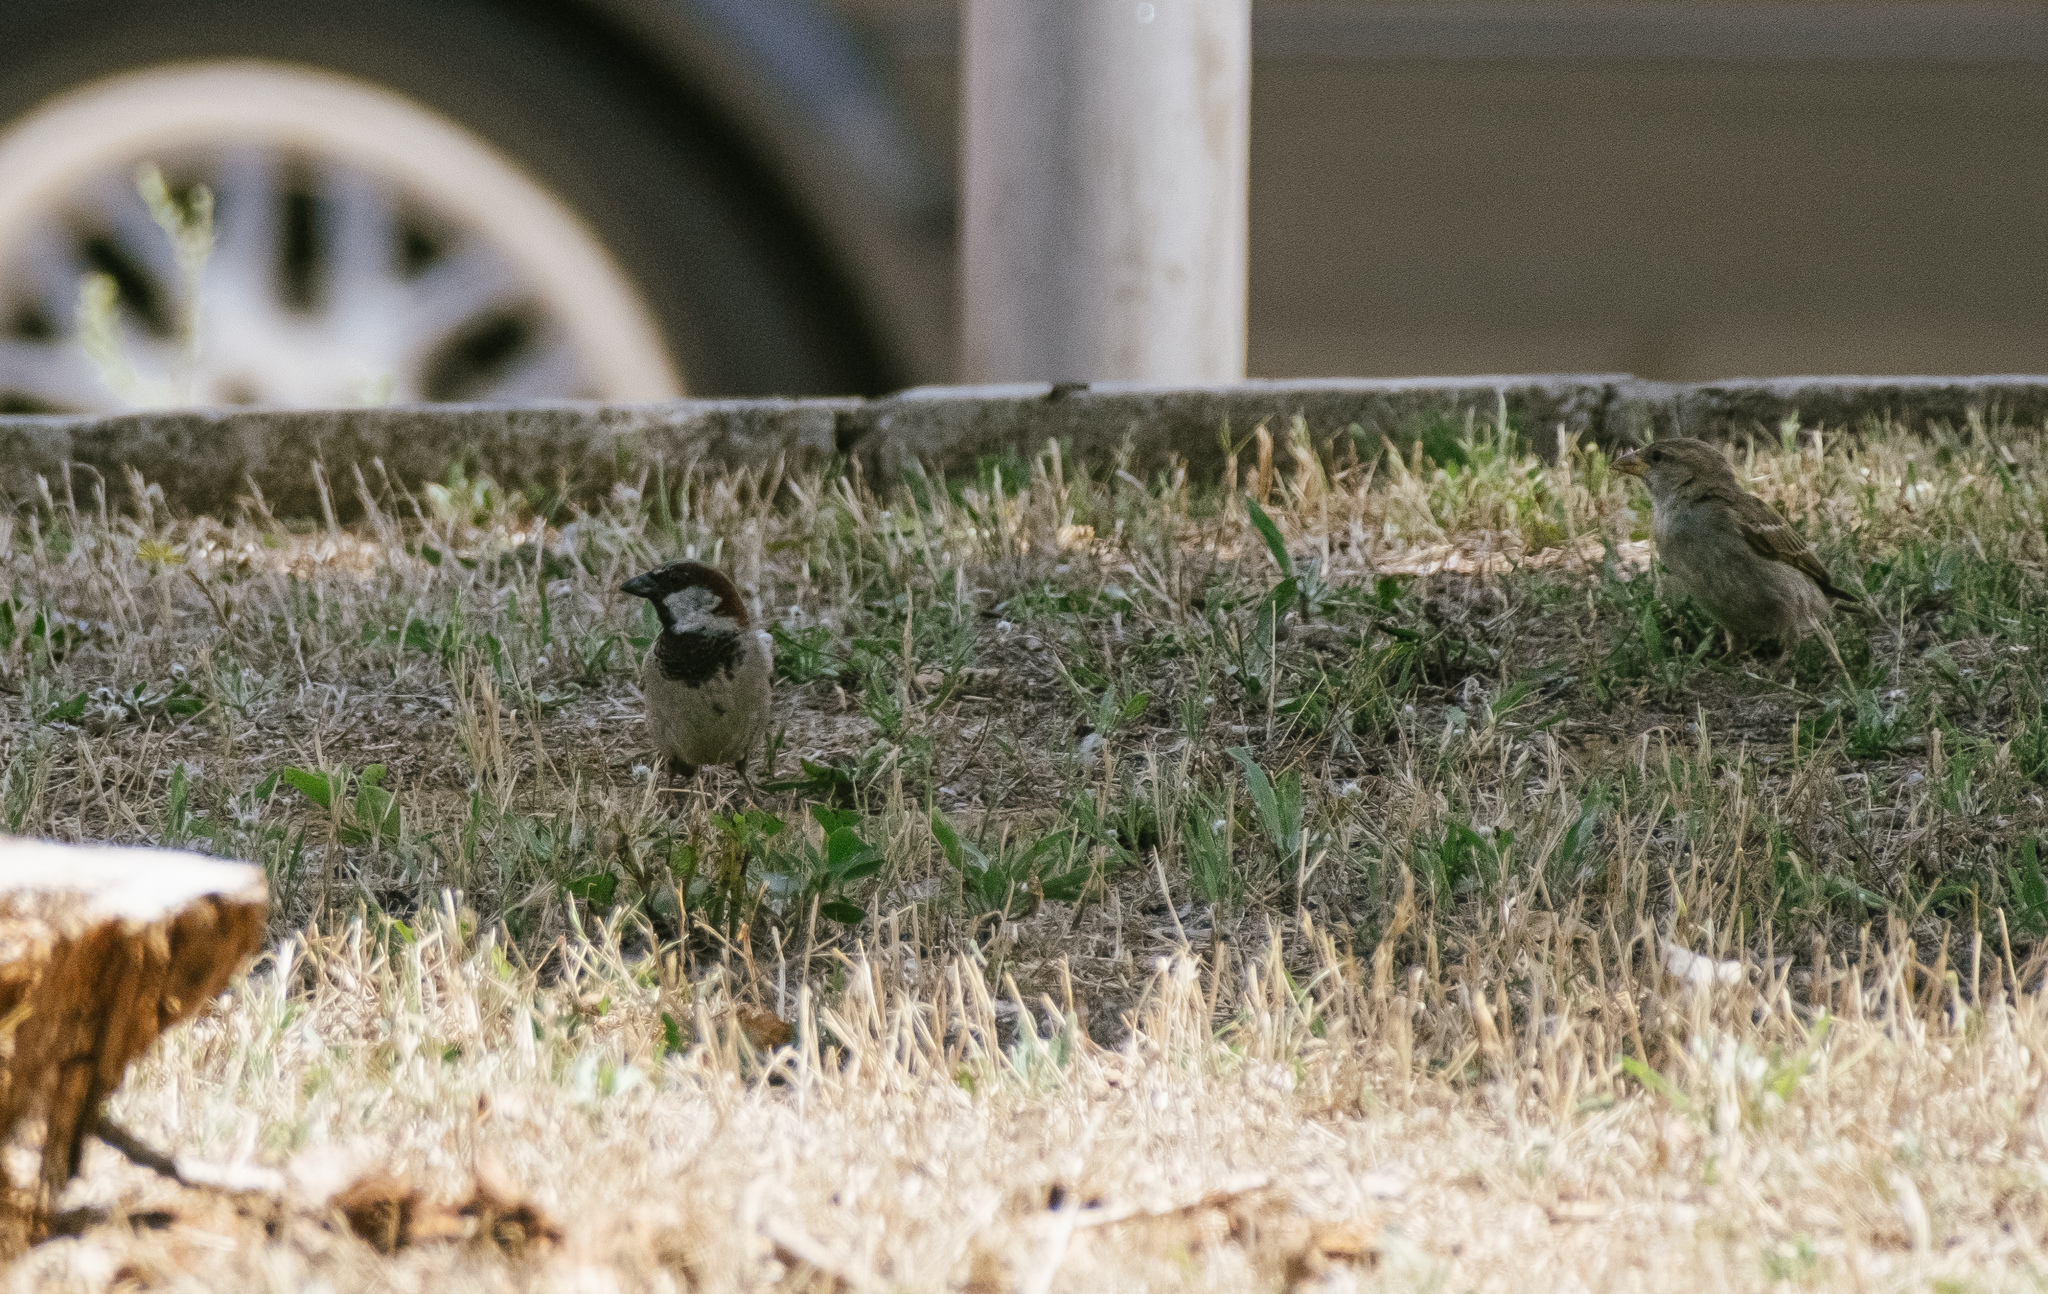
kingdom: Animalia
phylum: Chordata
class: Aves
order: Passeriformes
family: Passeridae
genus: Passer
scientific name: Passer domesticus
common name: House sparrow
